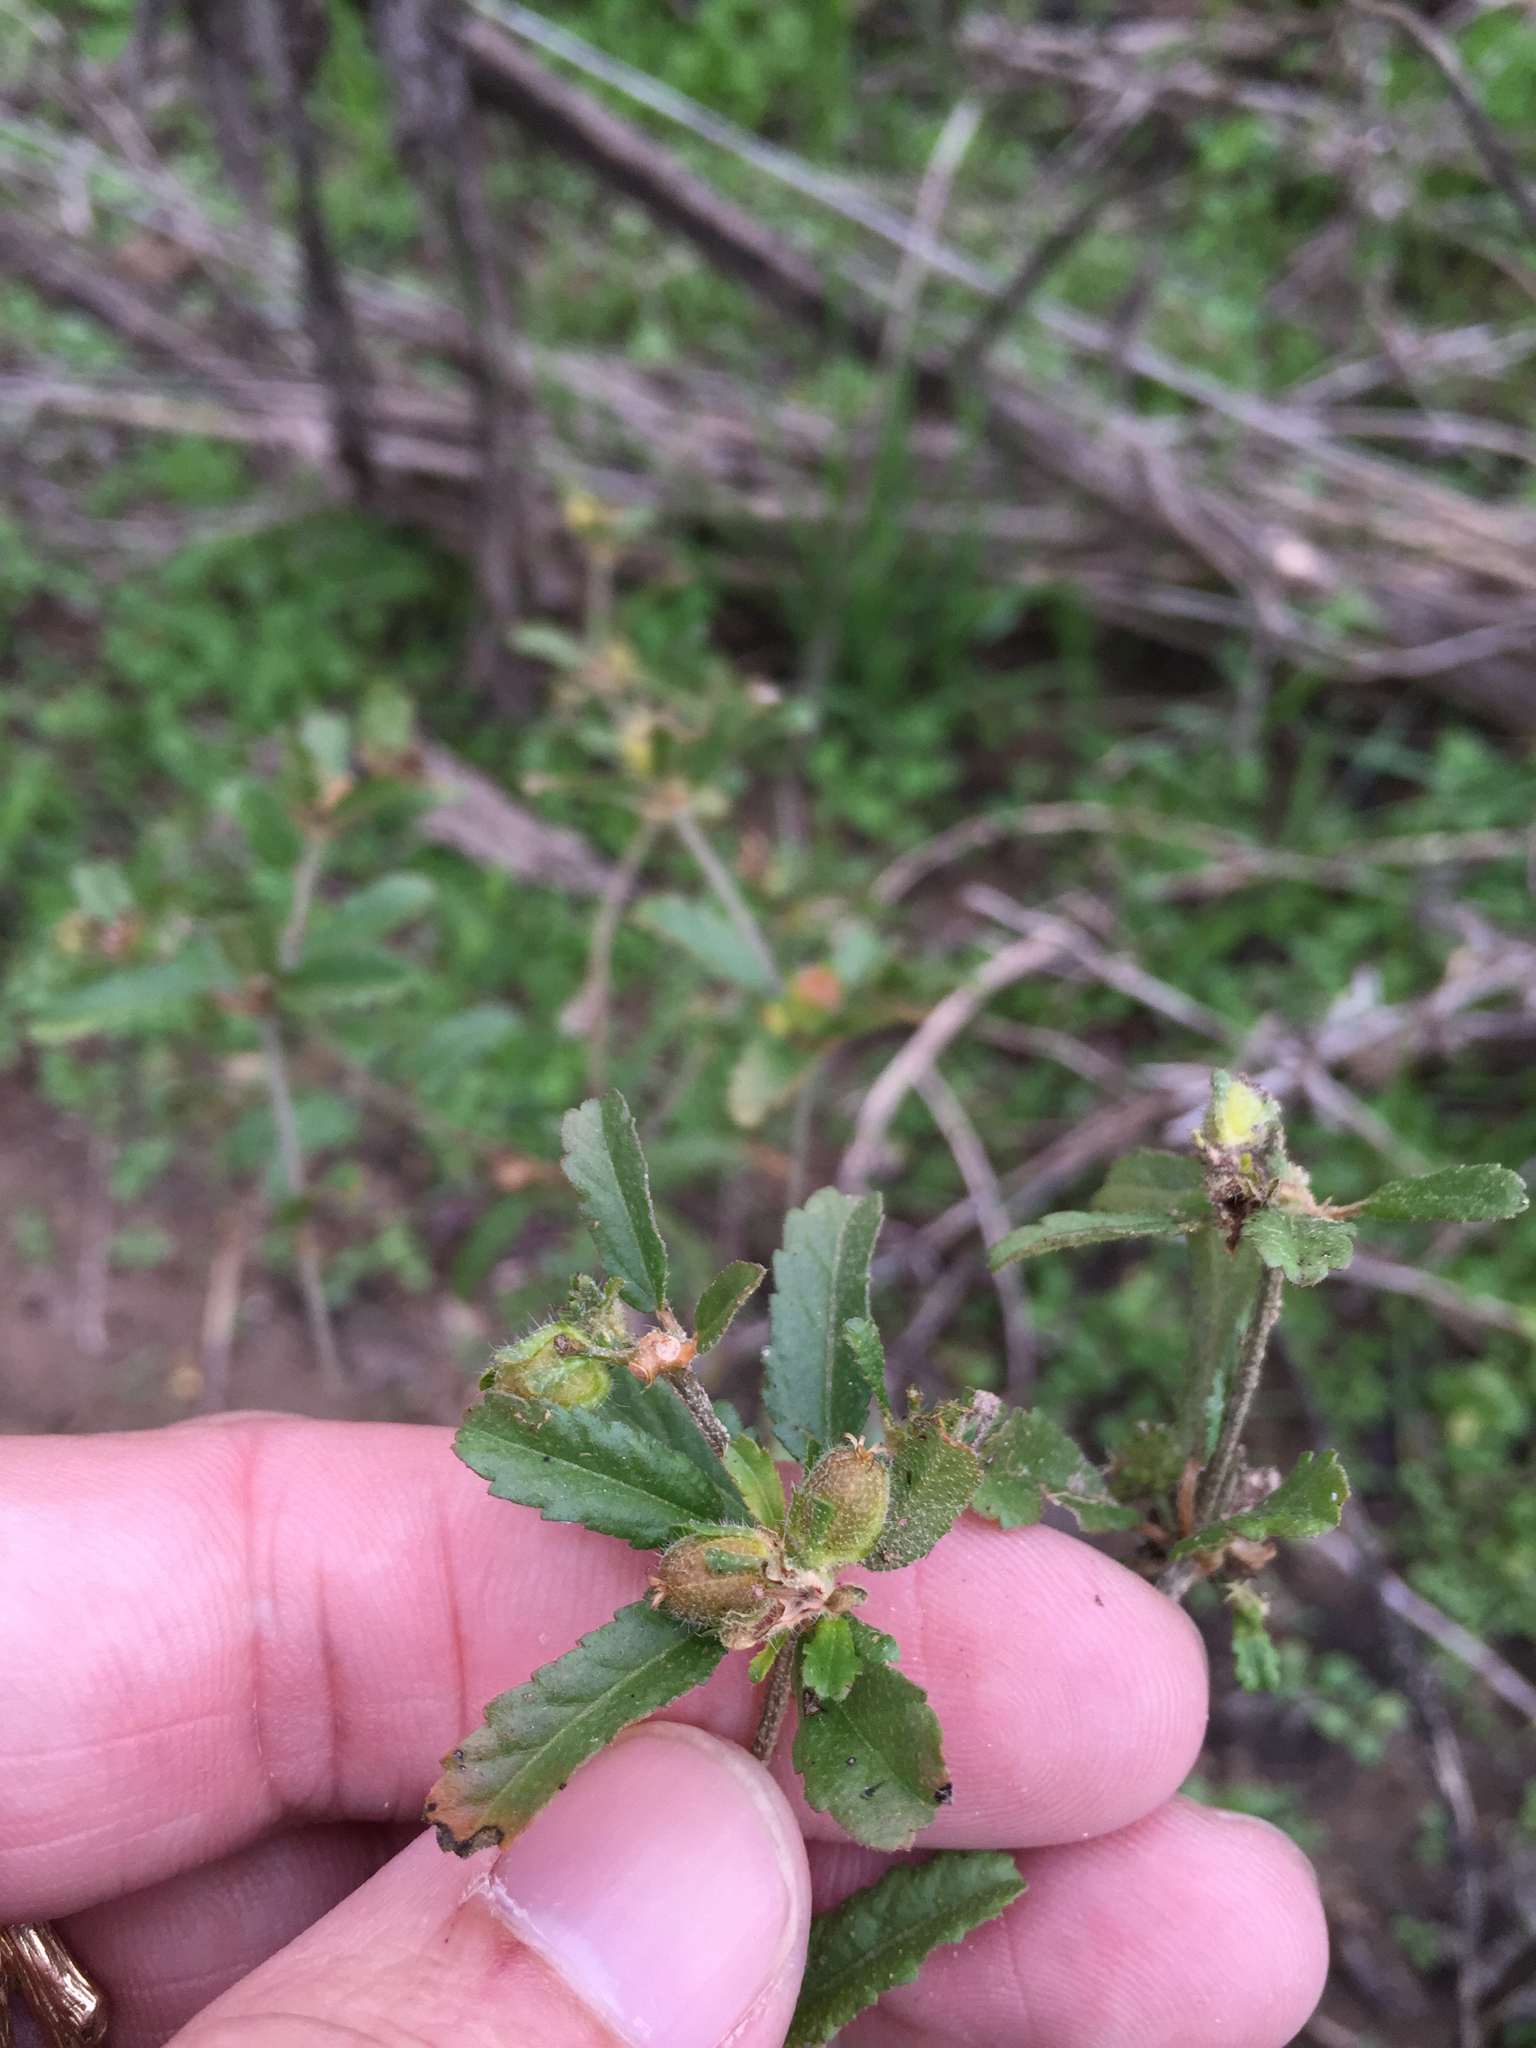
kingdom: Plantae
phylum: Tracheophyta
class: Magnoliopsida
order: Malpighiales
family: Euphorbiaceae
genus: Croton
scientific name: Croton glandulosus
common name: Tropic croton
